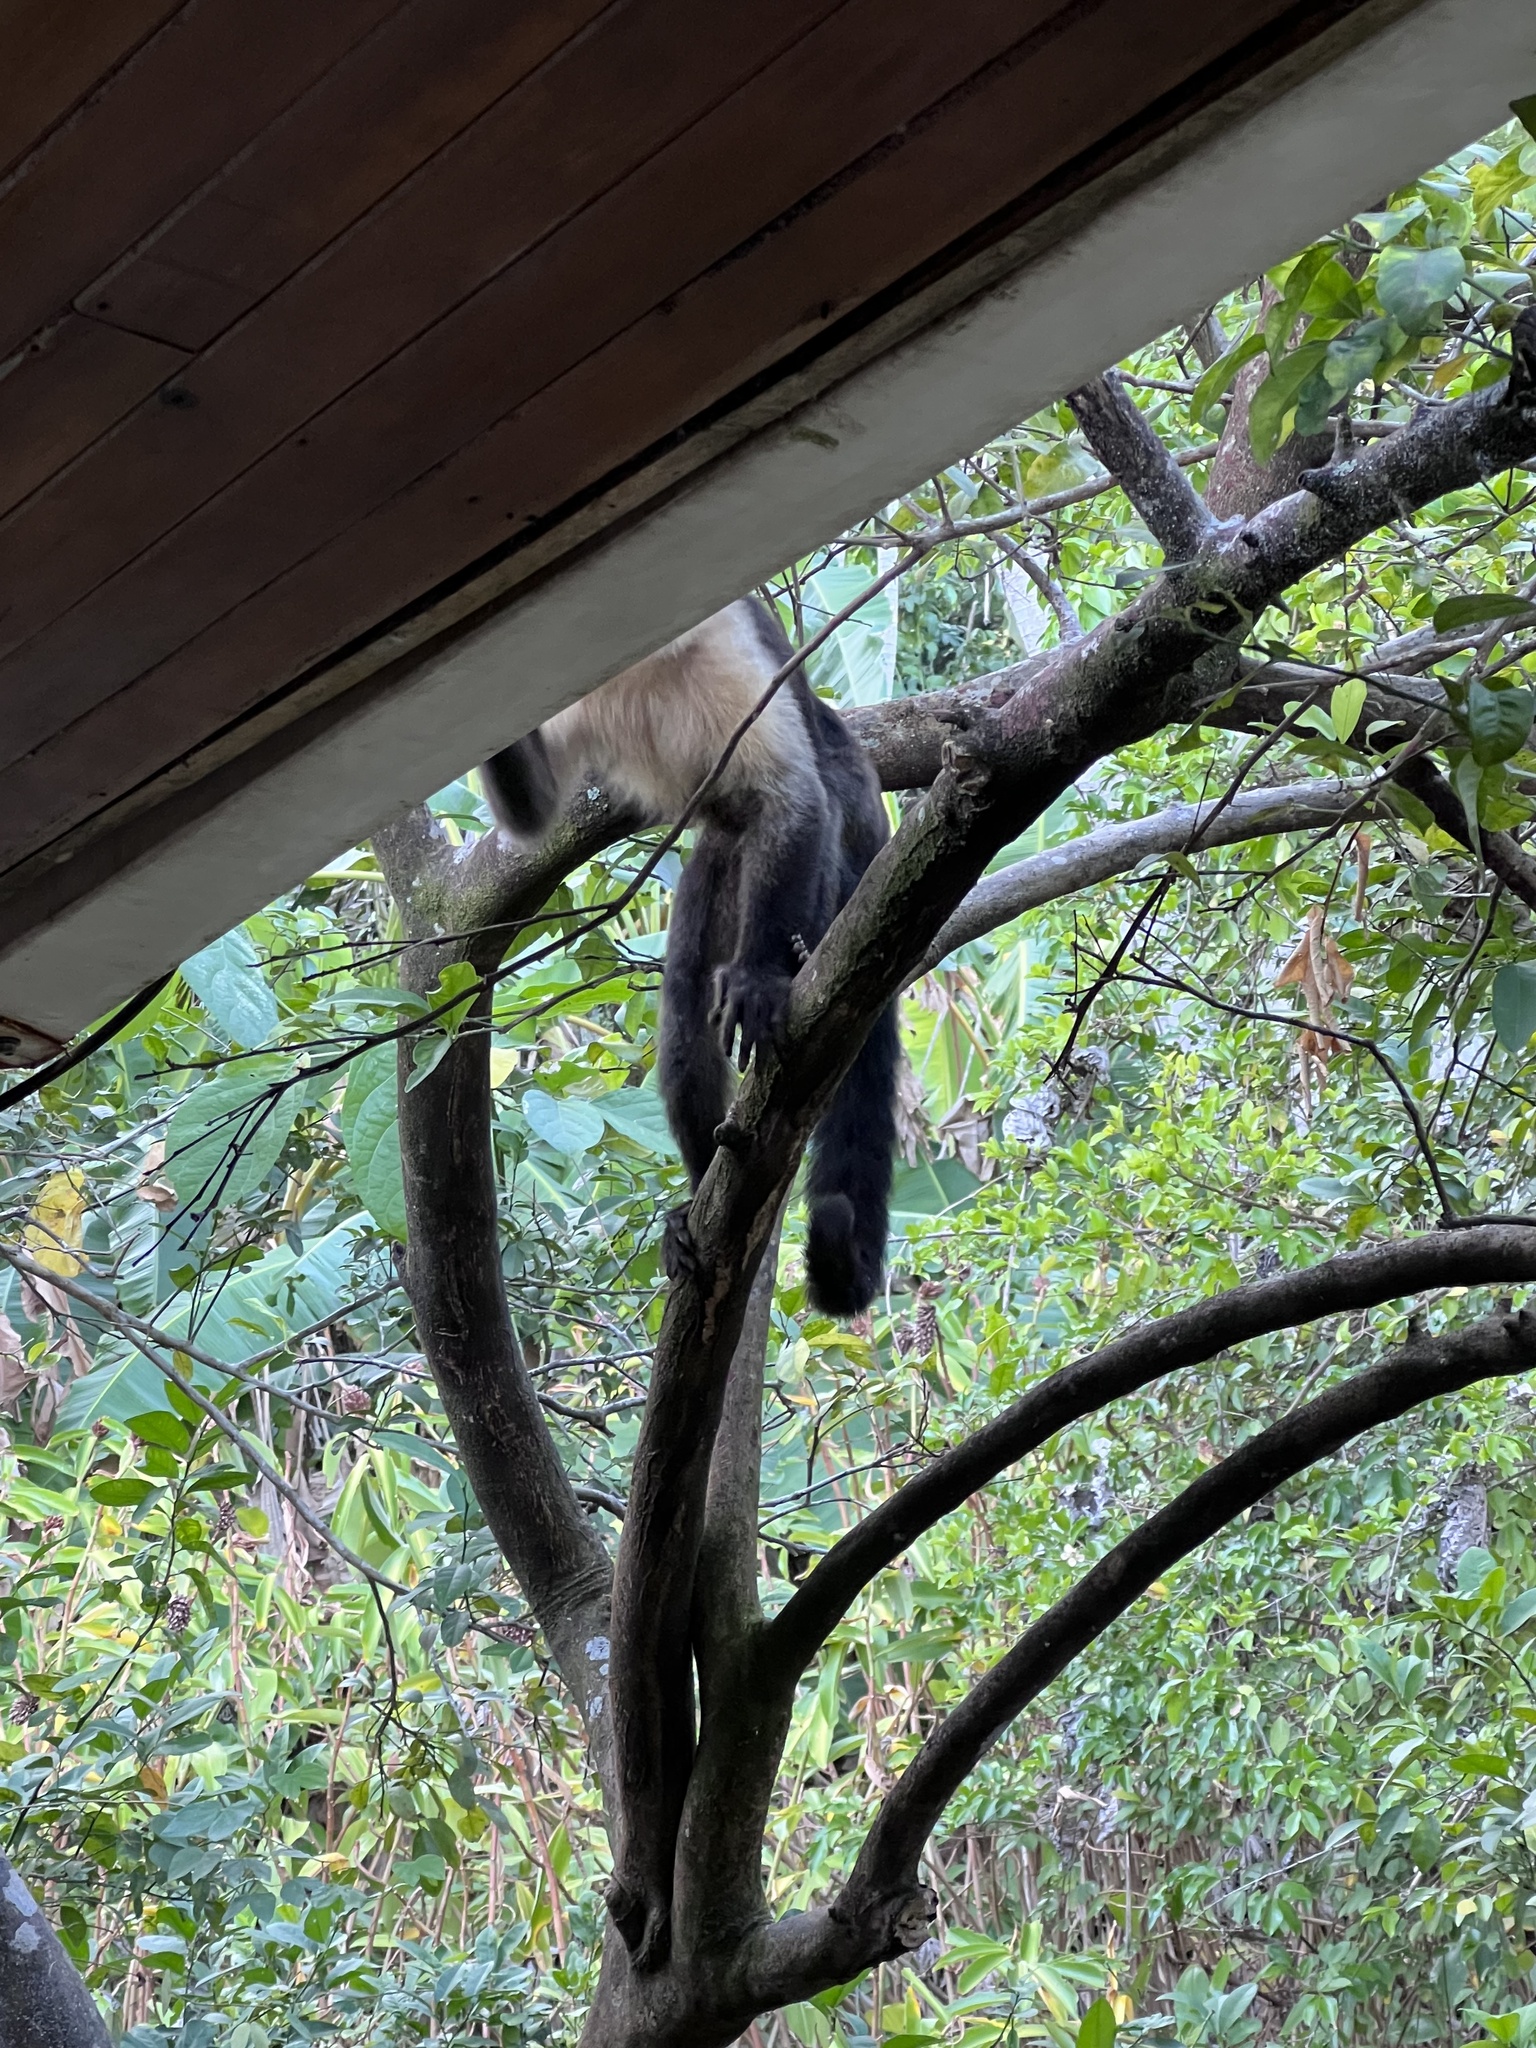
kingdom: Animalia
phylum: Chordata
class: Mammalia
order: Primates
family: Cebidae
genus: Cebus
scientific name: Cebus imitator
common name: Panamanian white-faced capuchin
